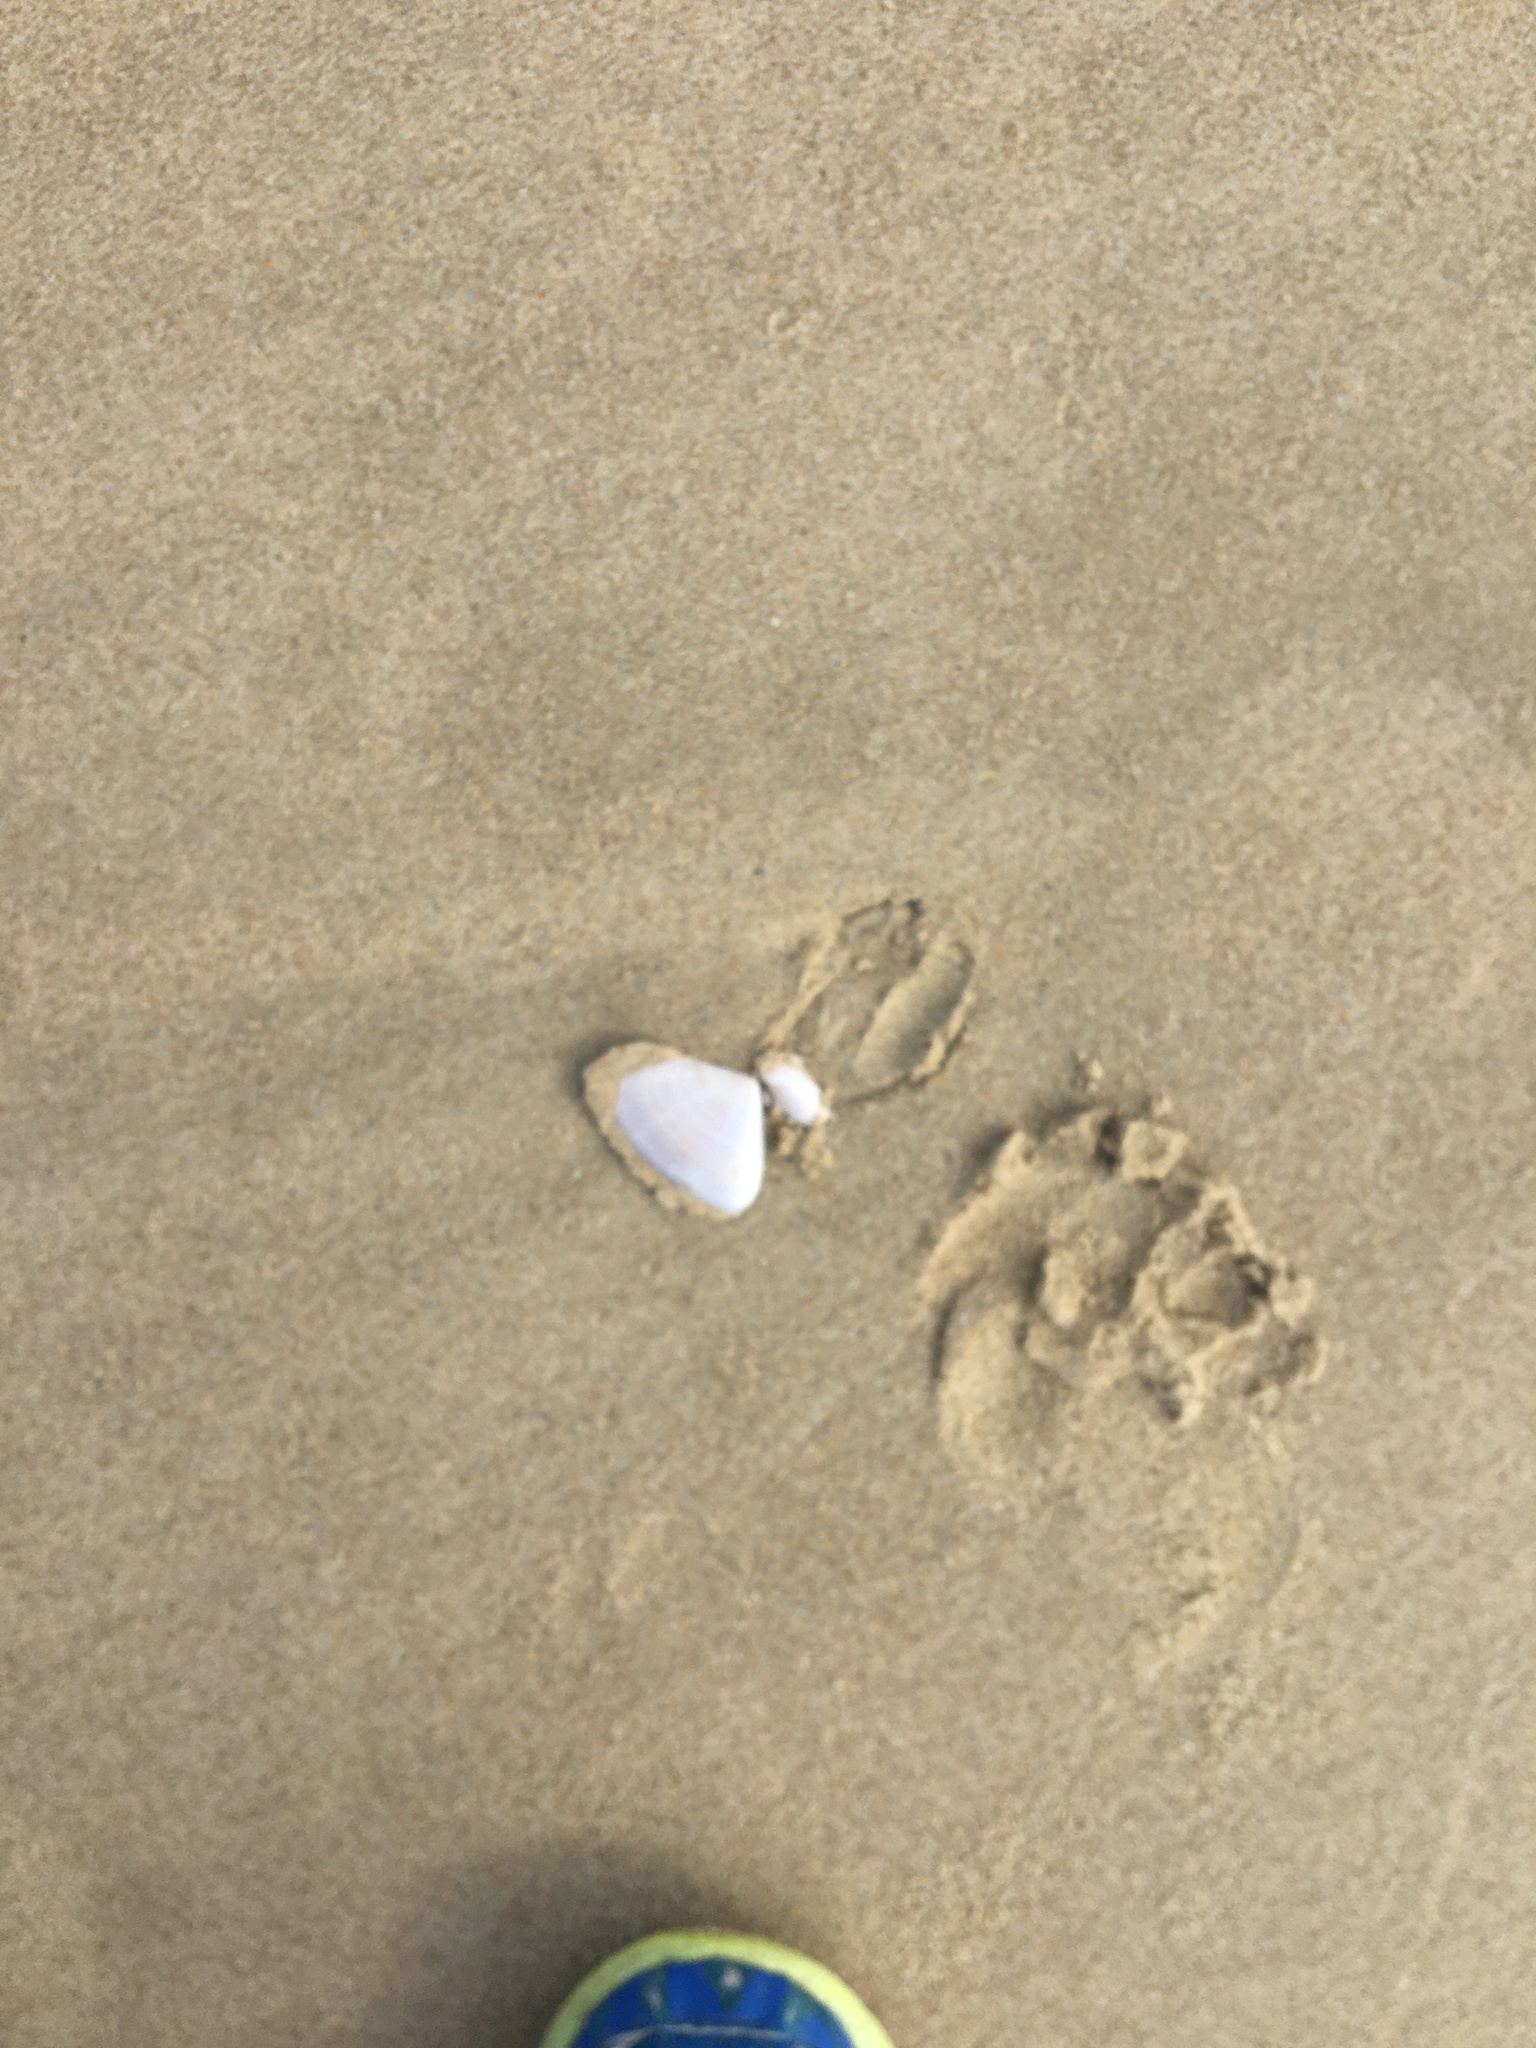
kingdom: Animalia
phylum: Mollusca
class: Bivalvia
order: Cardiida
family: Donacidae
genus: Latona
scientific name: Latona deltoides
